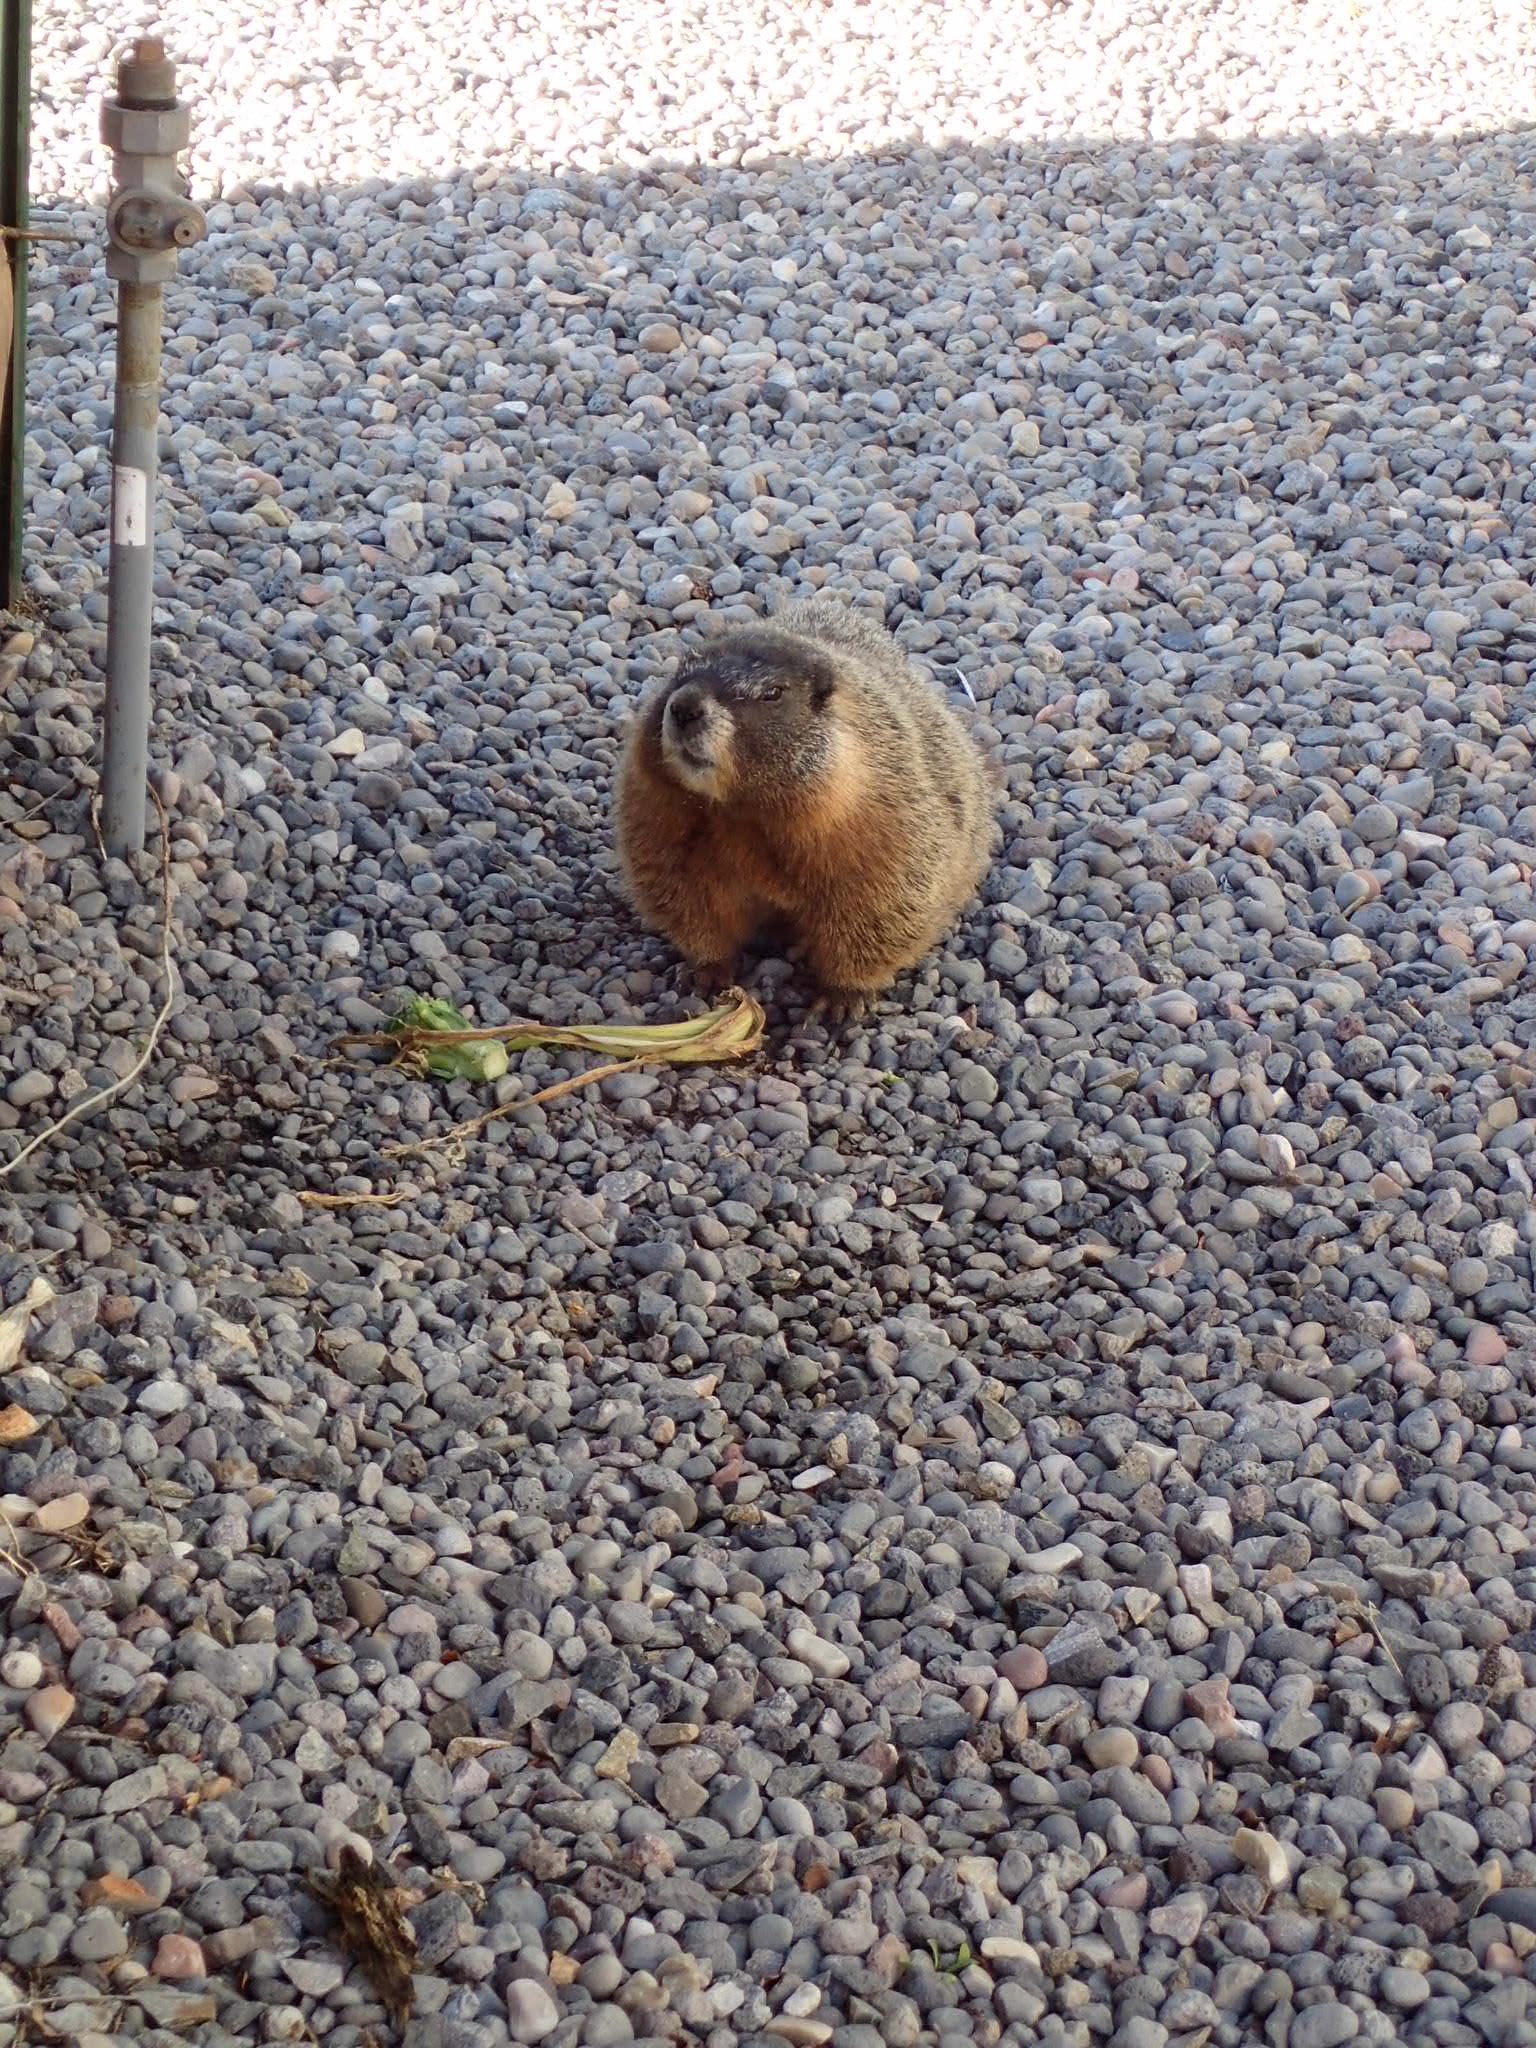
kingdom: Animalia
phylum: Chordata
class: Mammalia
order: Rodentia
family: Sciuridae
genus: Marmota
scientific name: Marmota flaviventris
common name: Yellow-bellied marmot
